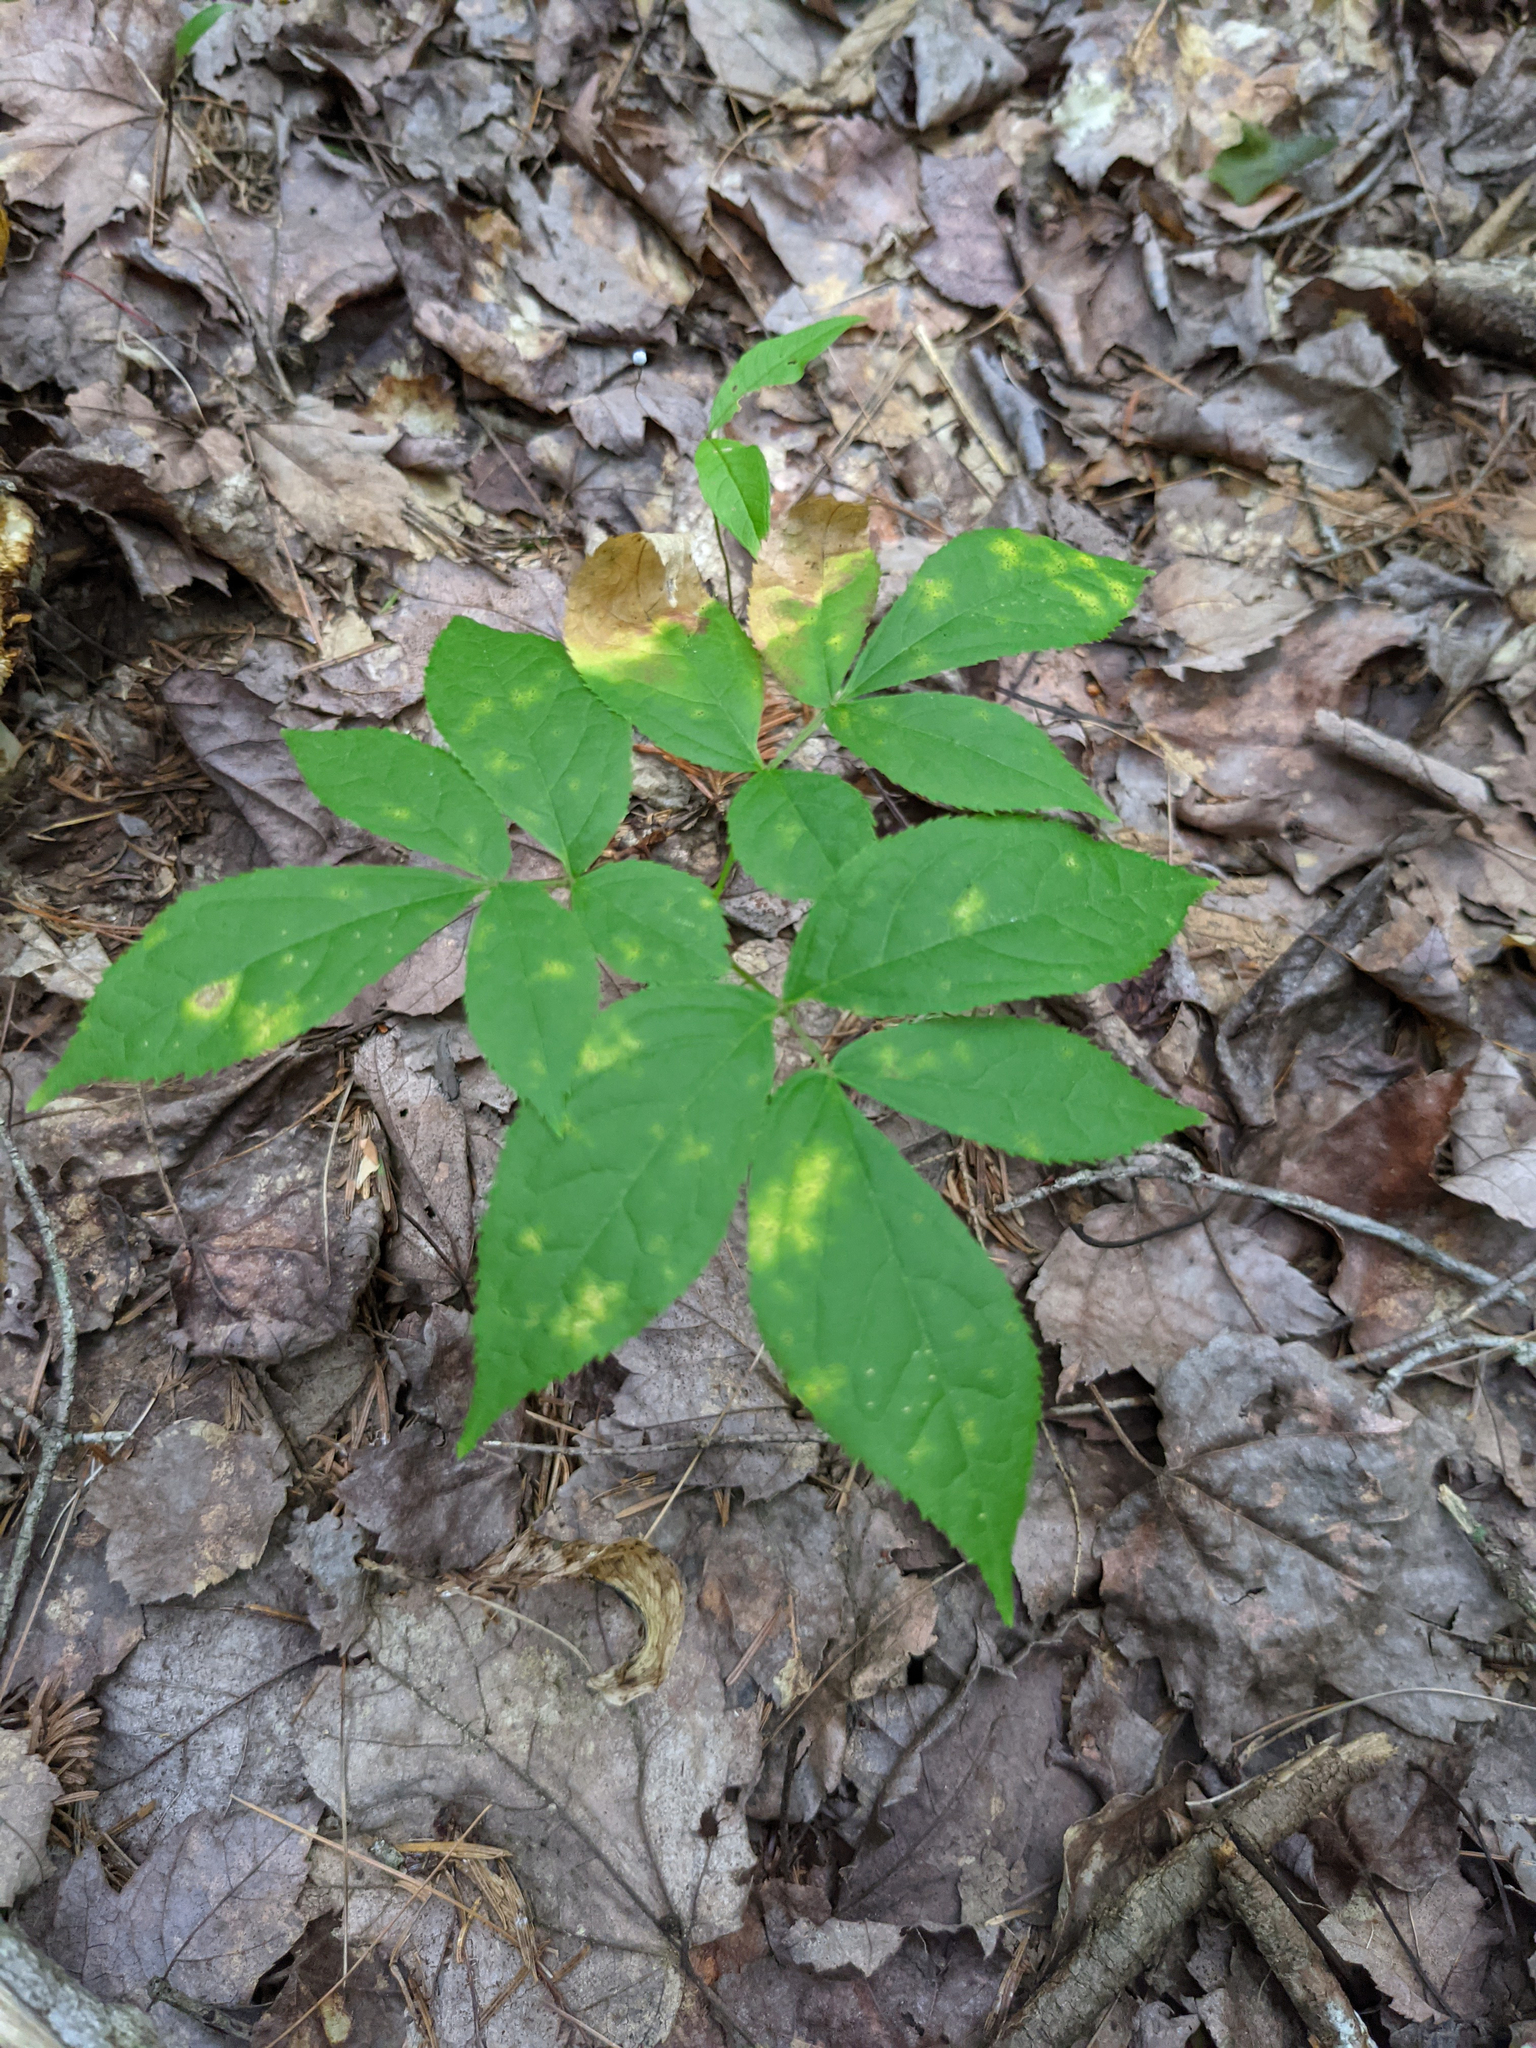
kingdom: Plantae
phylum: Tracheophyta
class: Magnoliopsida
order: Apiales
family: Araliaceae
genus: Aralia
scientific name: Aralia nudicaulis
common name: Wild sarsaparilla
